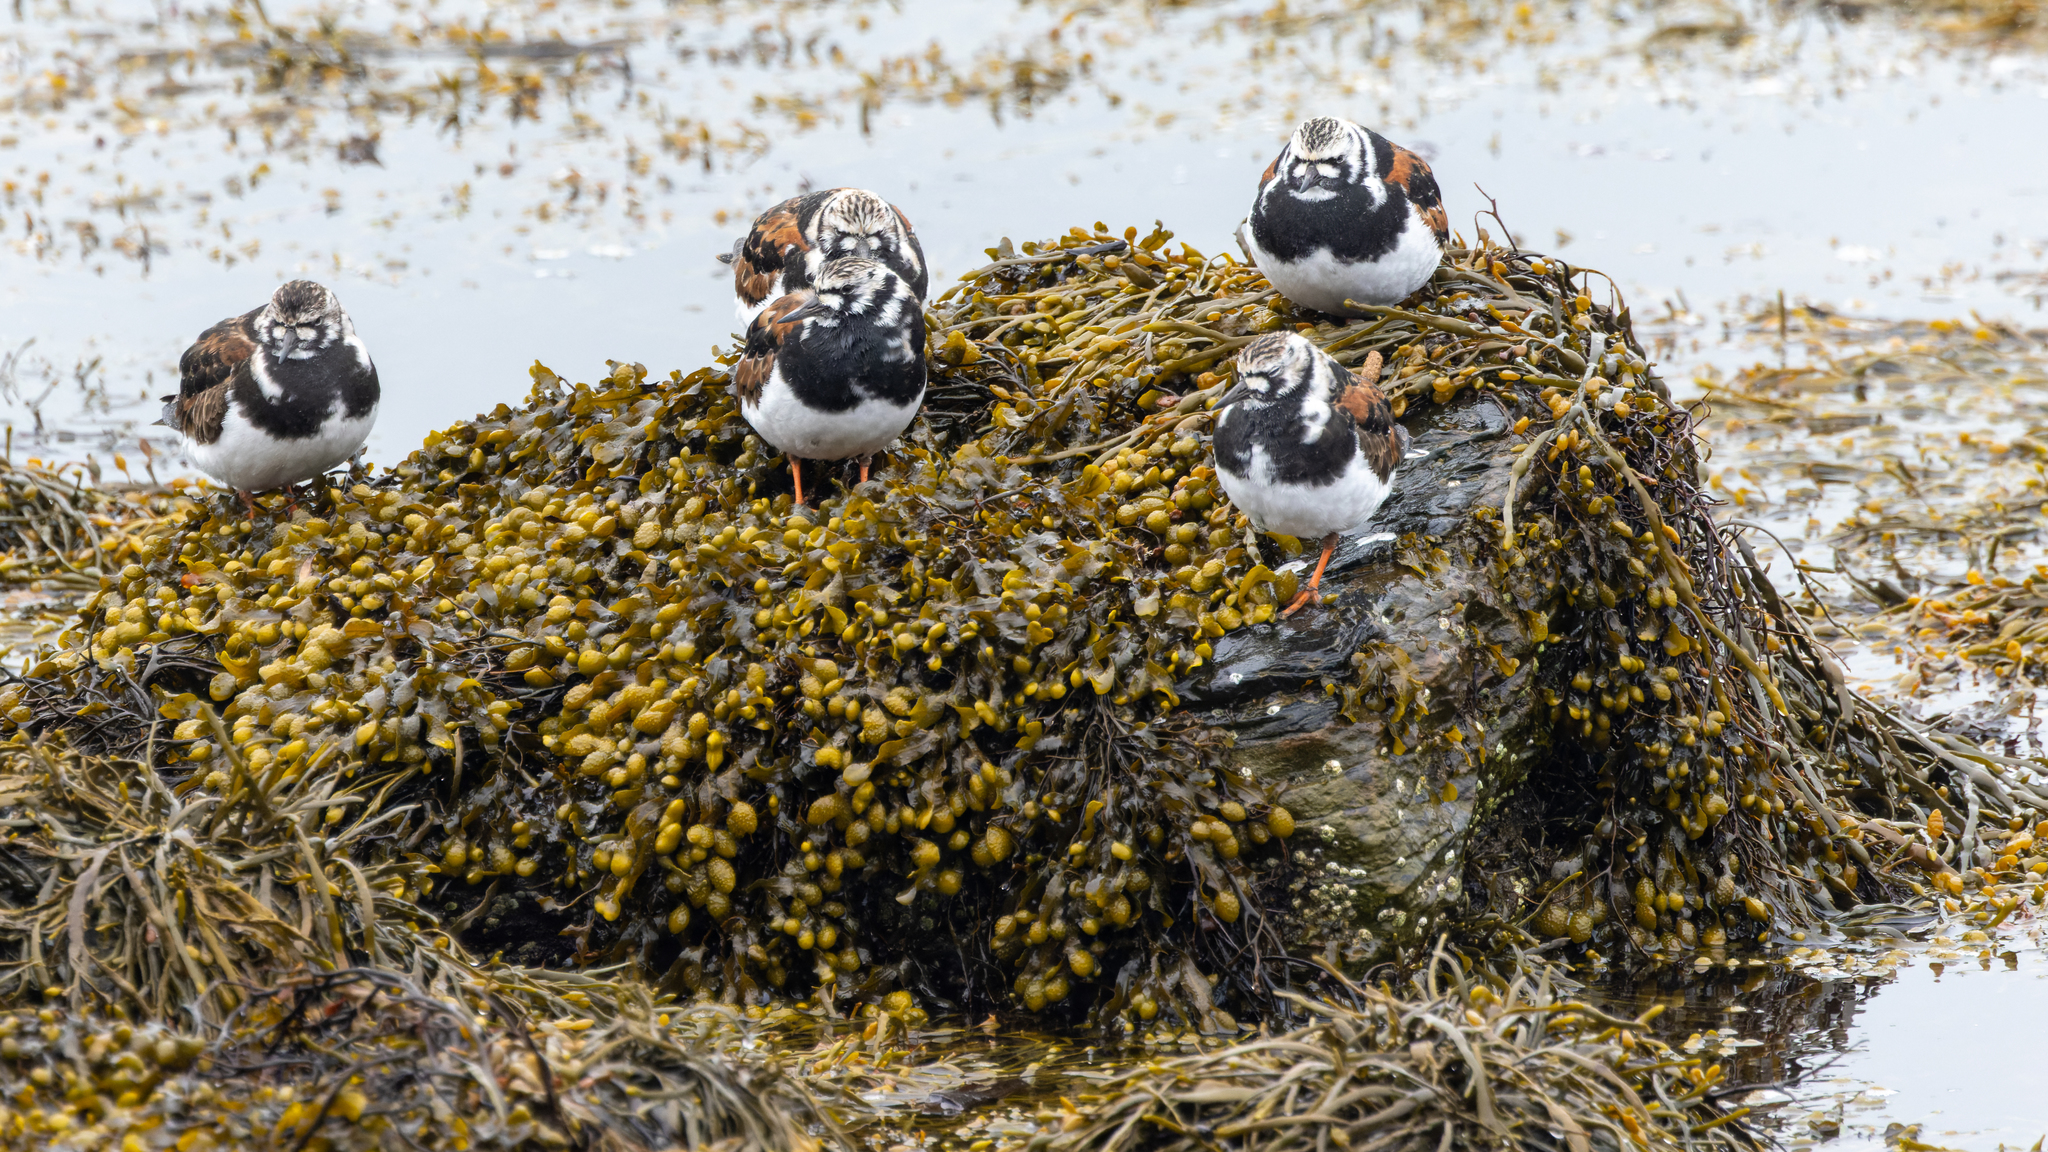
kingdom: Animalia
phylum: Chordata
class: Aves
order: Charadriiformes
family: Scolopacidae
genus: Arenaria
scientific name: Arenaria interpres
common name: Ruddy turnstone
